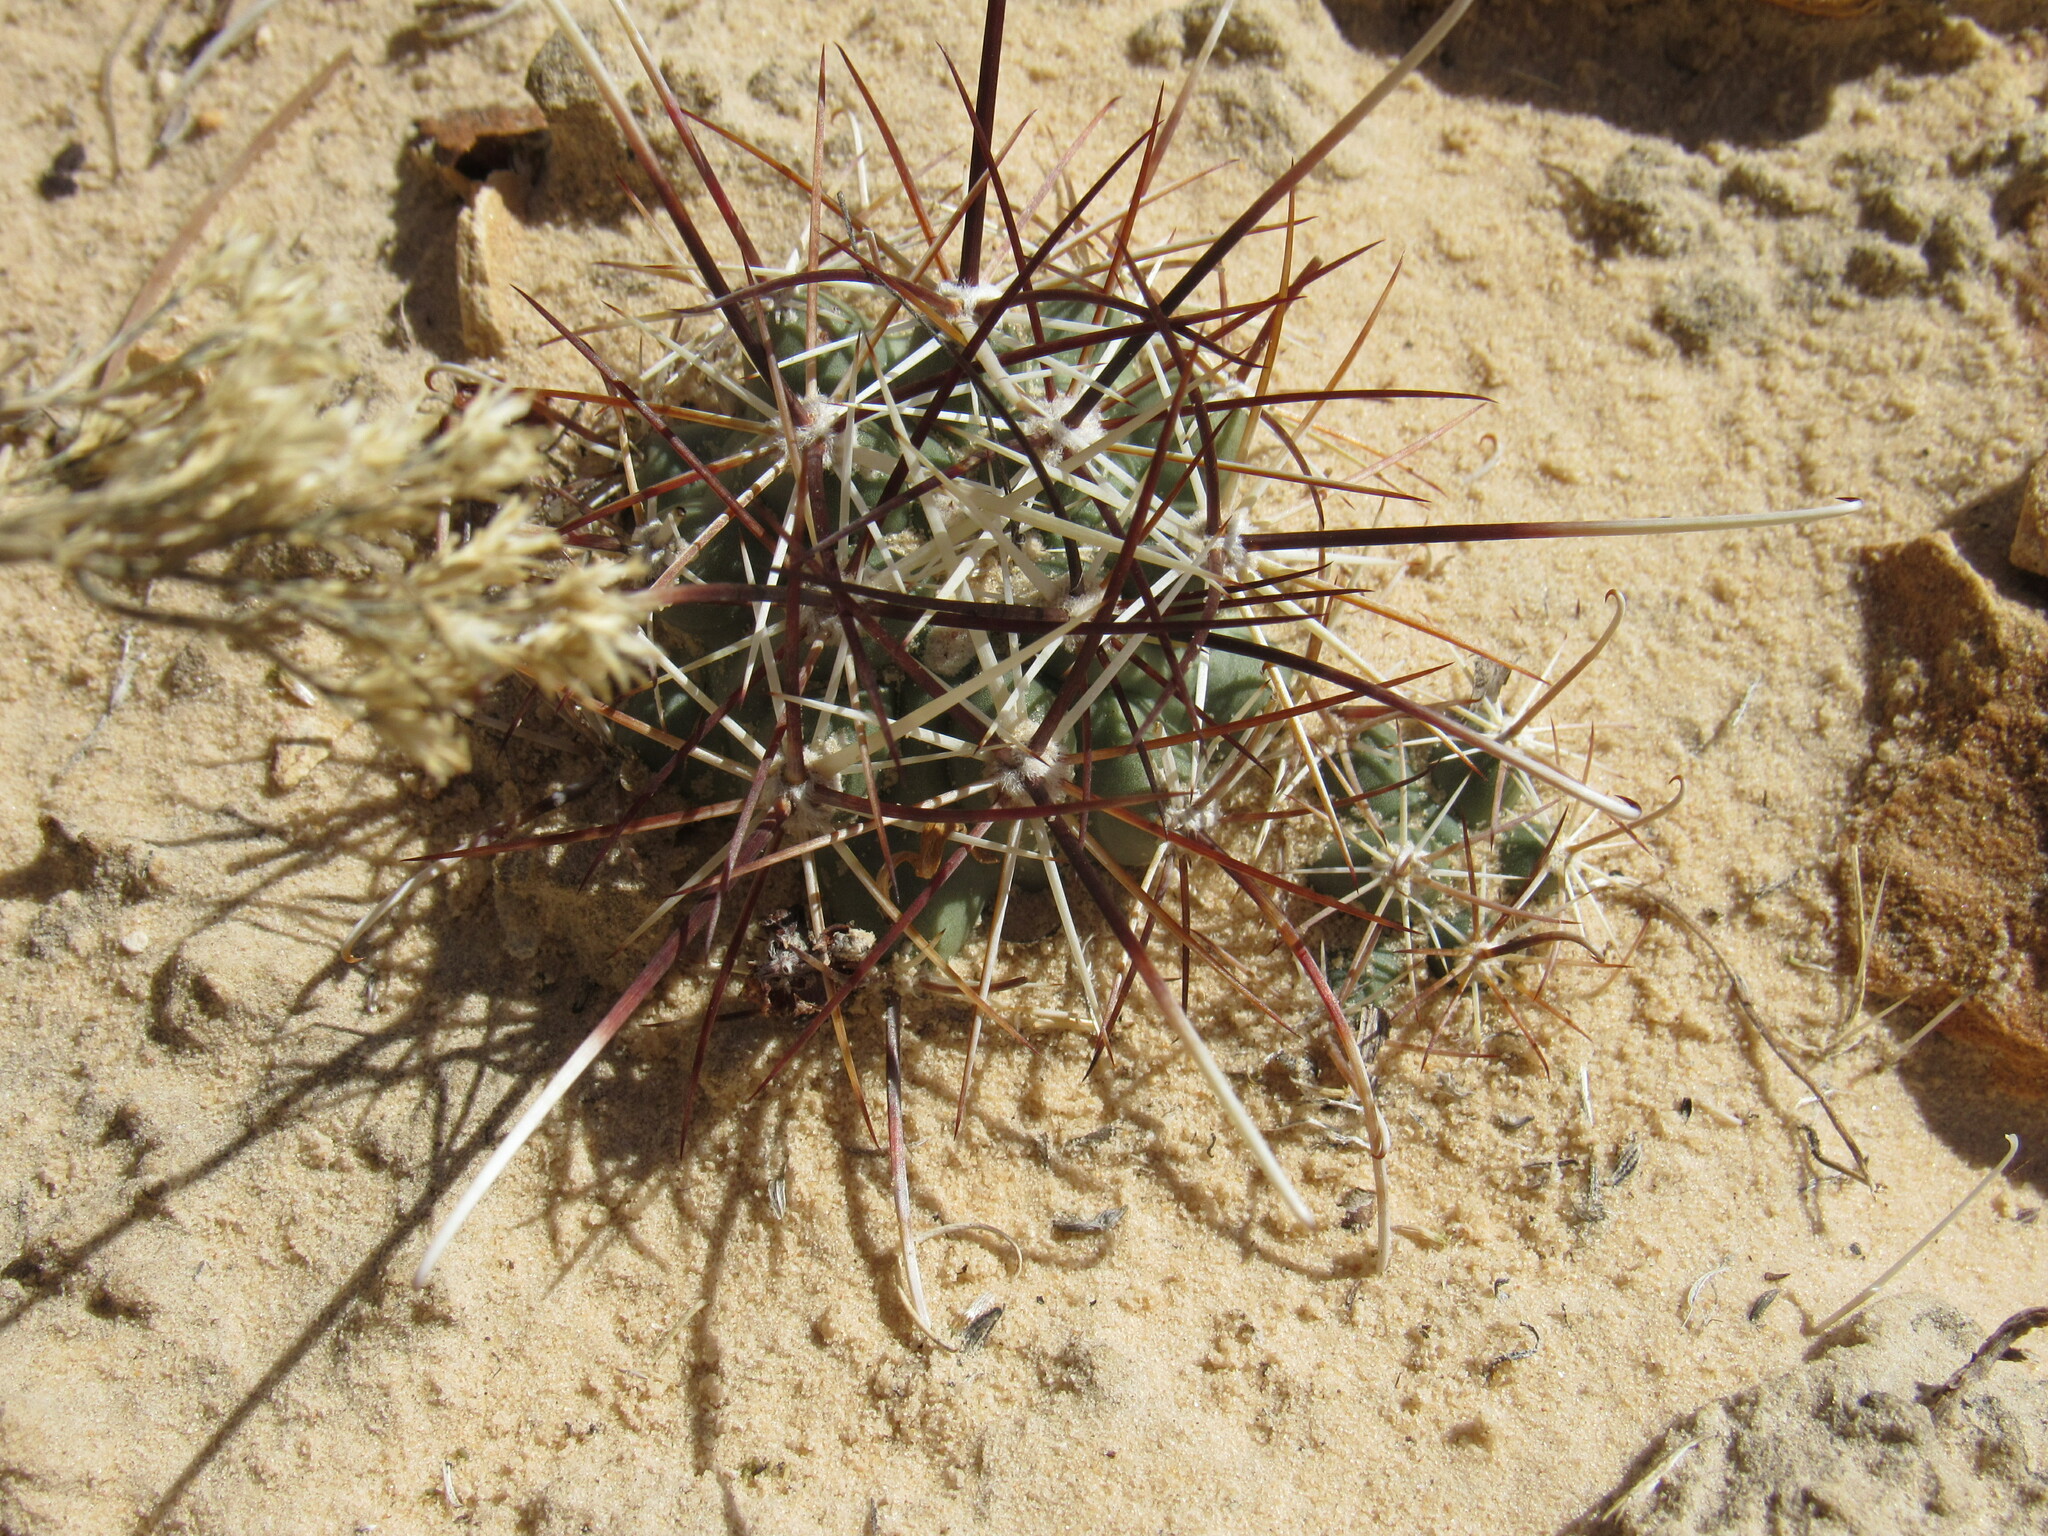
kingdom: Plantae
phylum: Tracheophyta
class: Magnoliopsida
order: Caryophyllales
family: Cactaceae
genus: Sclerocactus
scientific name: Sclerocactus parviflorus
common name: Small-flower fishhook cactus
